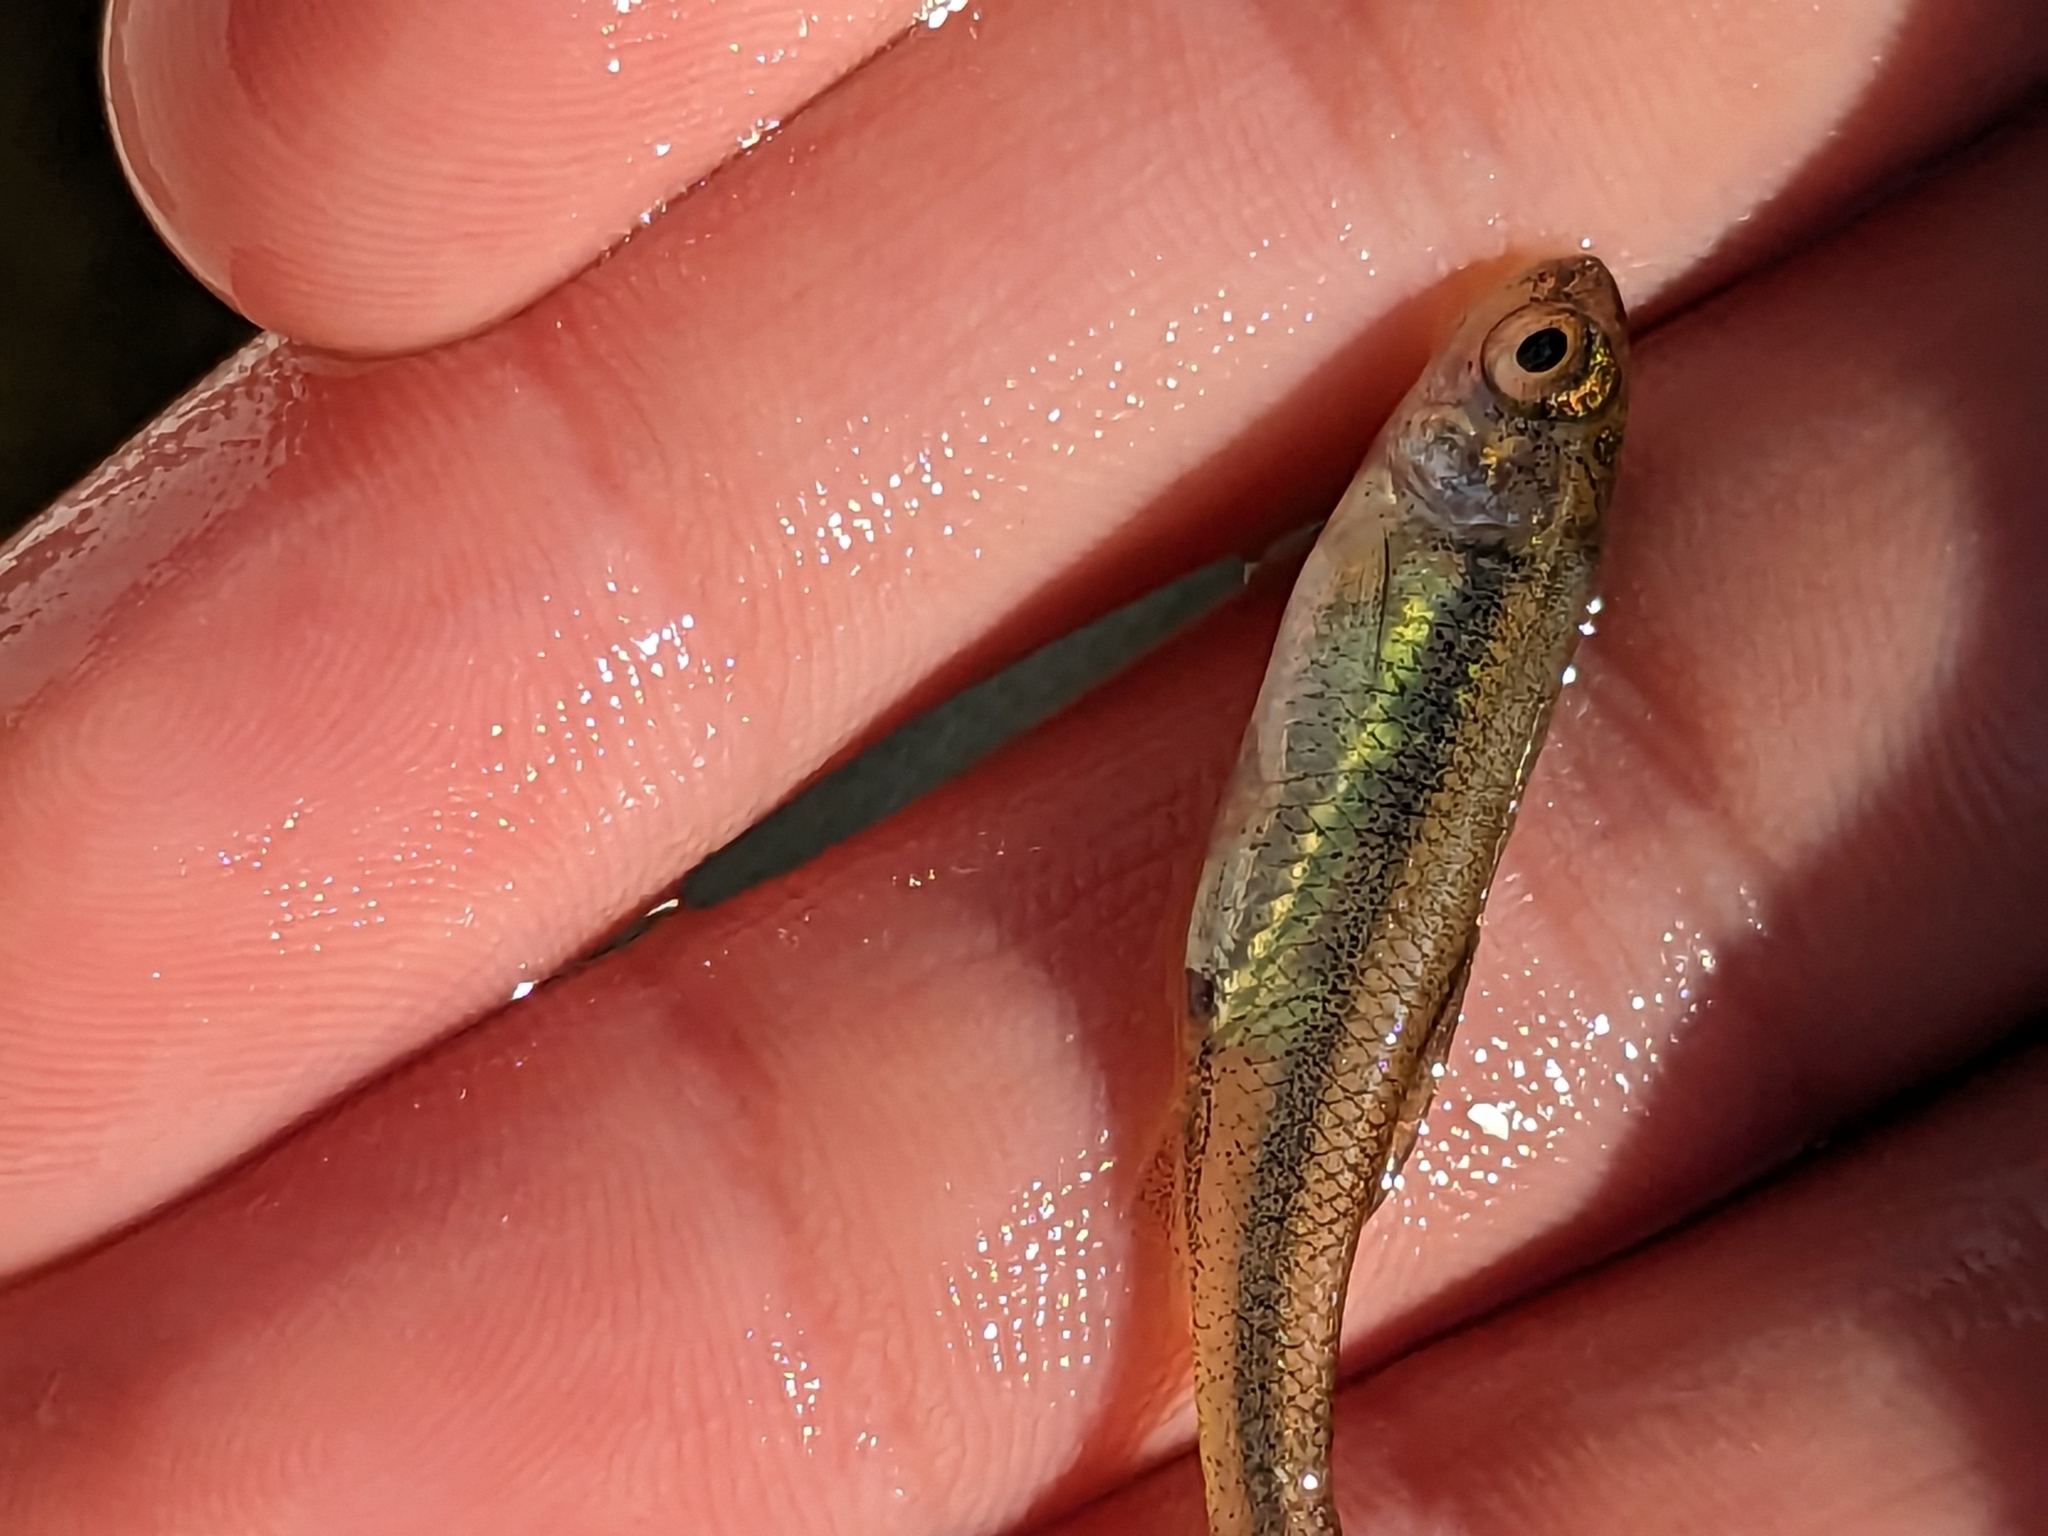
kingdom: Animalia
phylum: Chordata
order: Cypriniformes
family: Cyprinidae
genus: Luxilus
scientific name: Luxilus cornutus
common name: Common shiner
